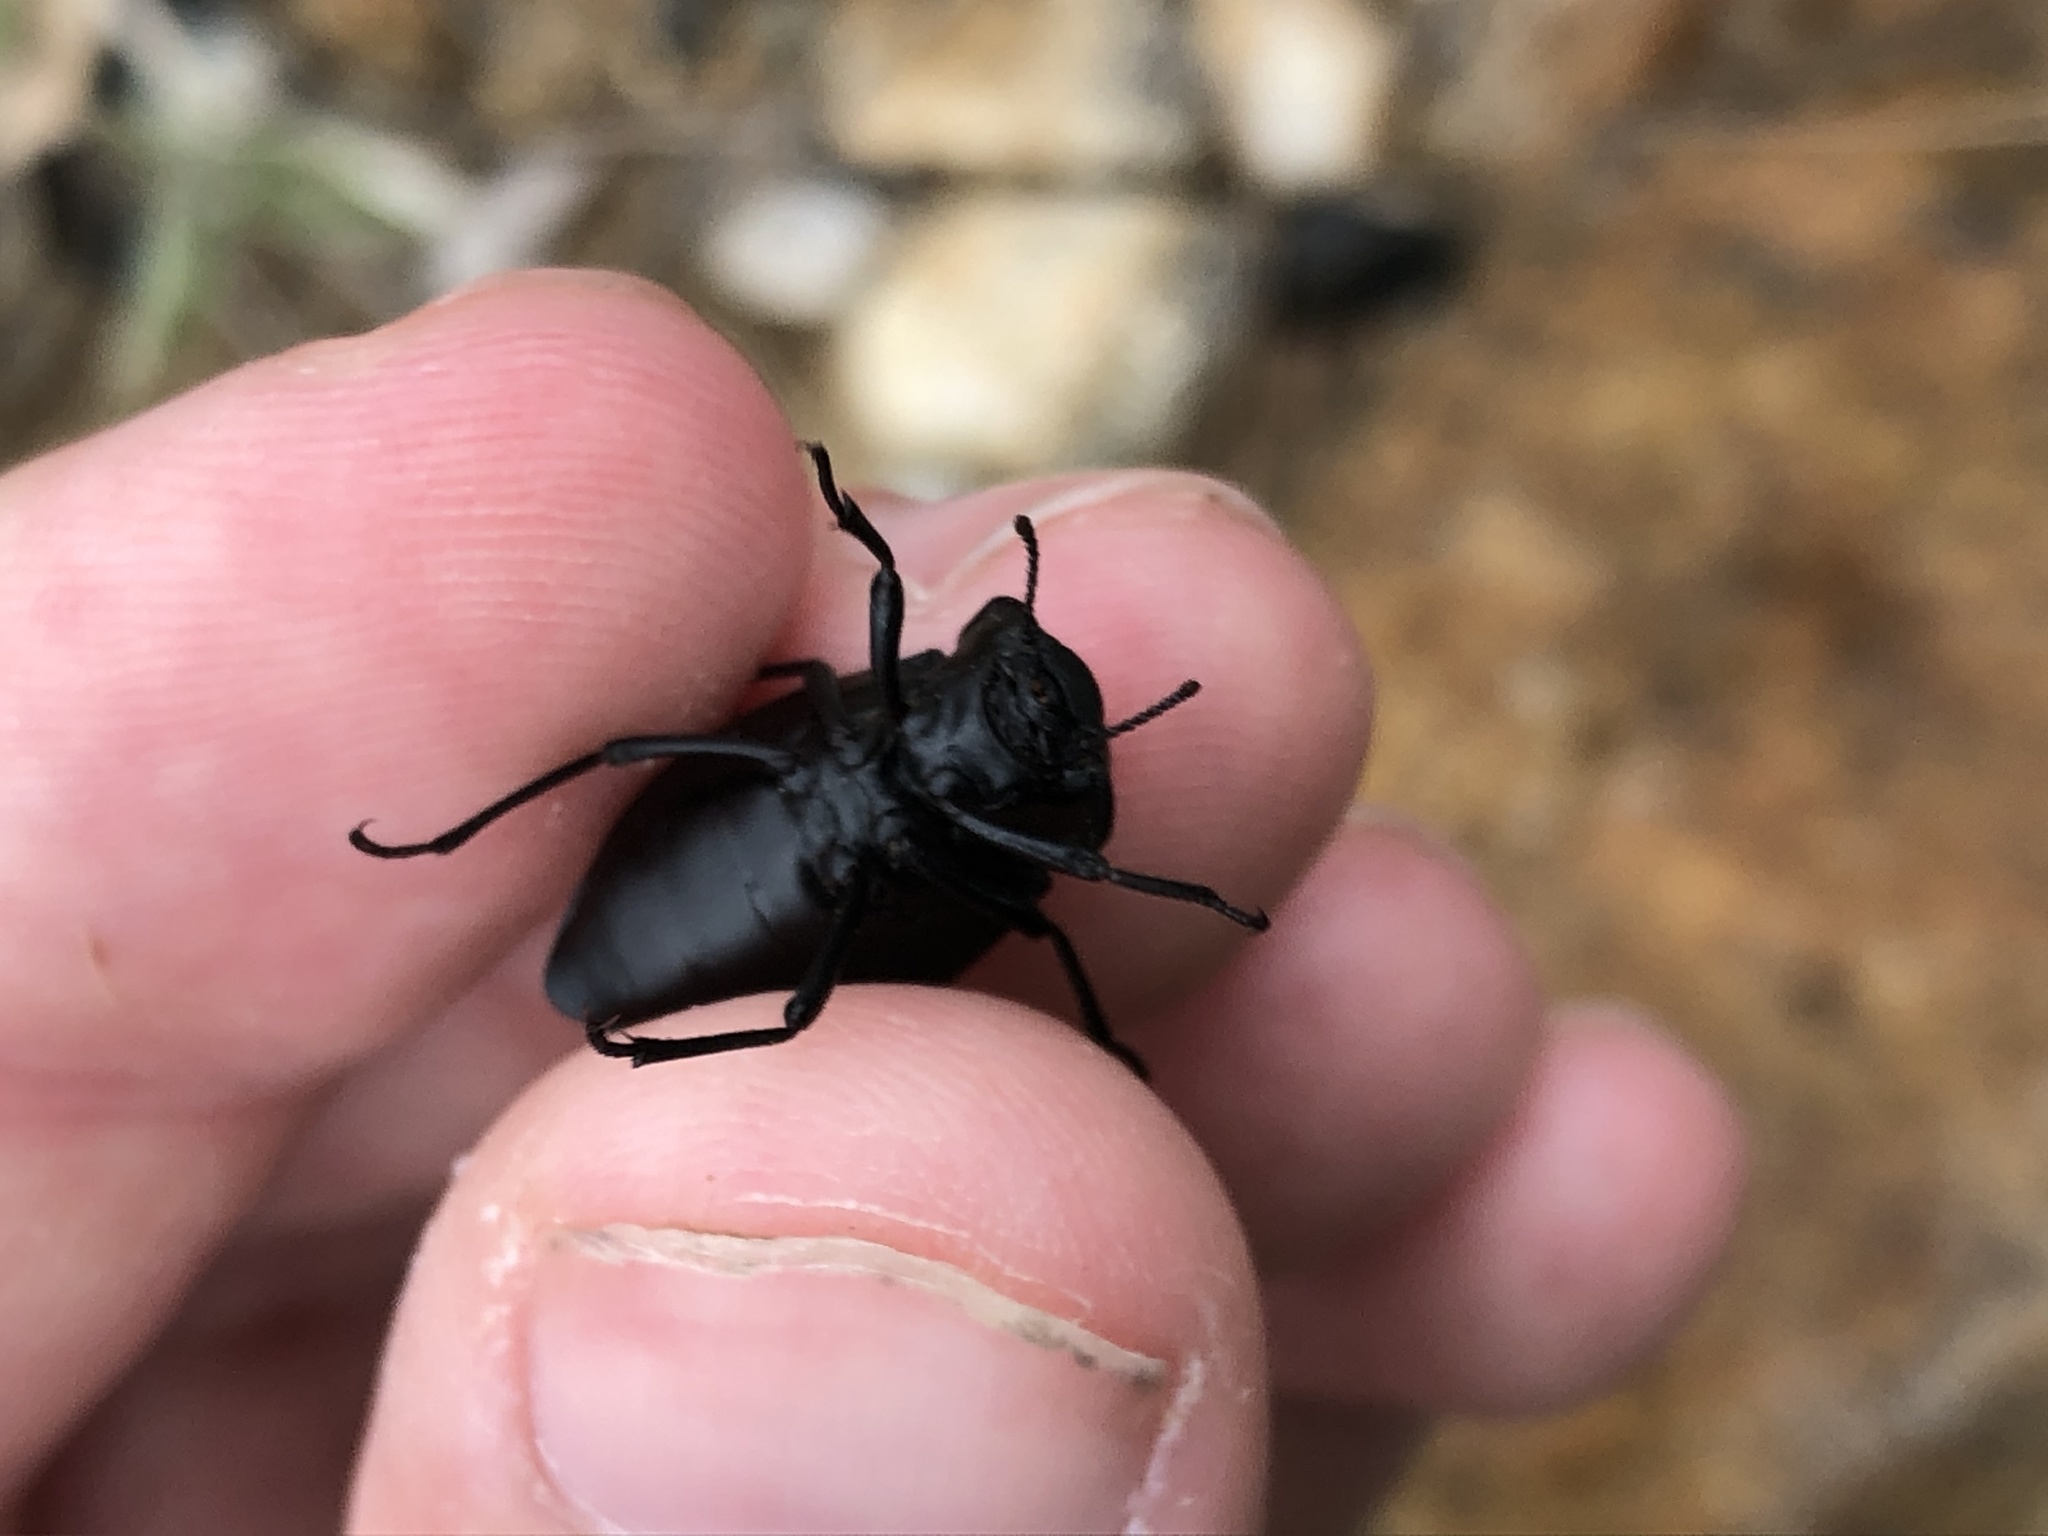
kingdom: Animalia
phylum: Arthropoda
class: Insecta
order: Coleoptera
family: Tenebrionidae
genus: Stenomorpha
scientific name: Stenomorpha polita
